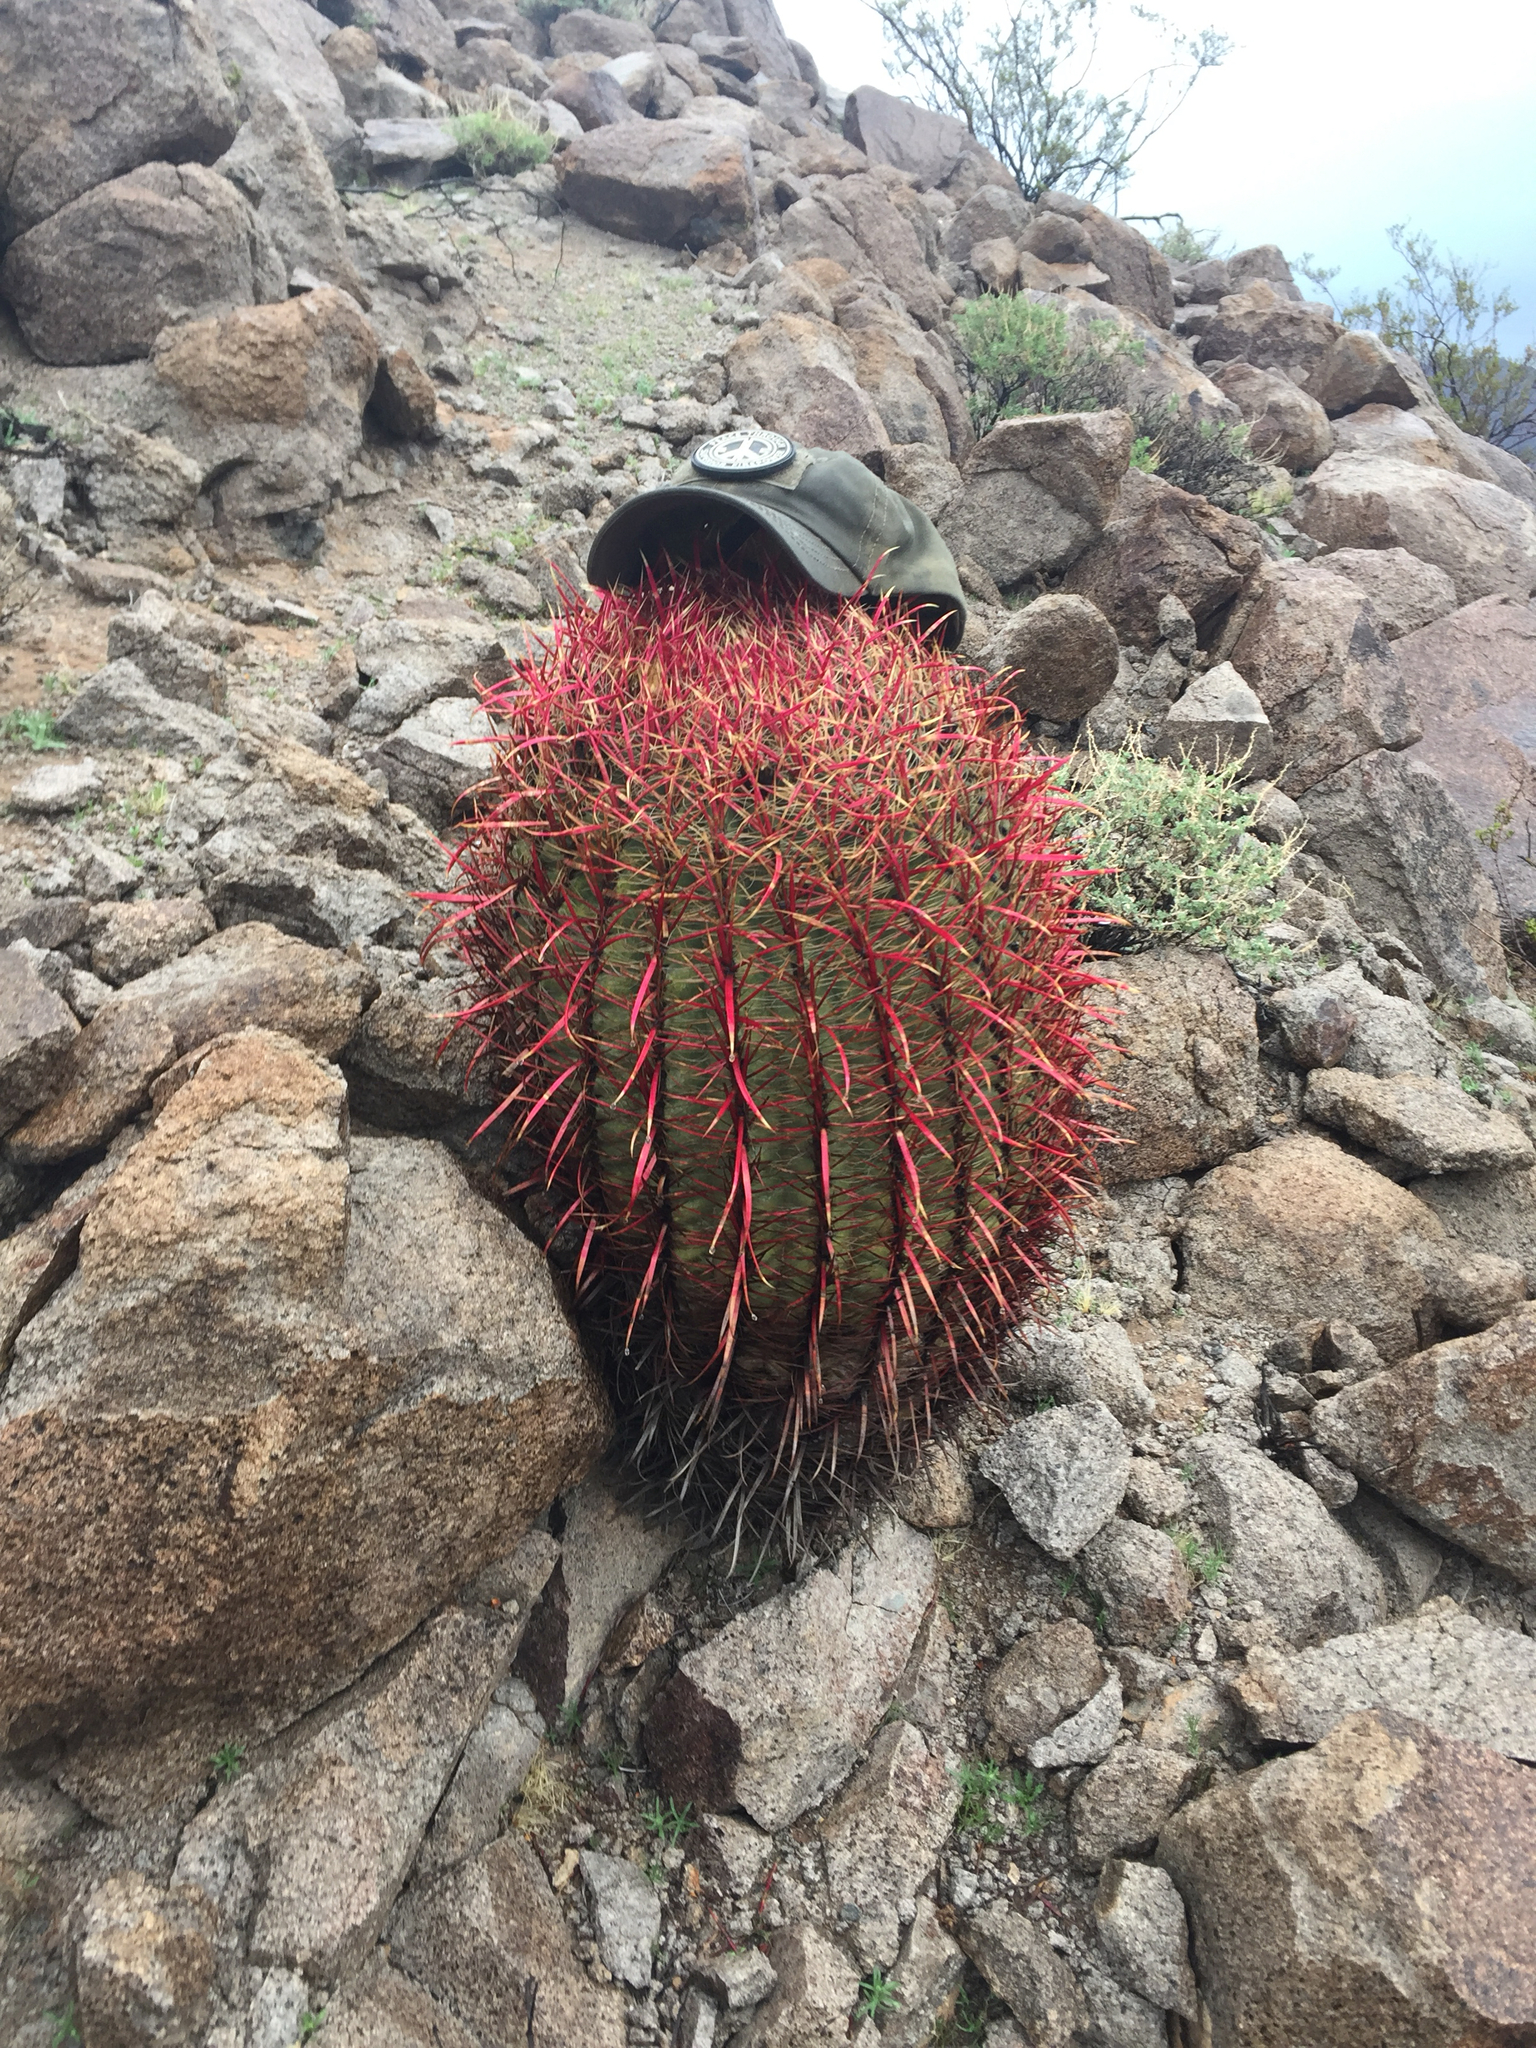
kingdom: Plantae
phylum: Tracheophyta
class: Magnoliopsida
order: Caryophyllales
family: Cactaceae
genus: Ferocactus
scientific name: Ferocactus cylindraceus
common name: California barrel cactus
